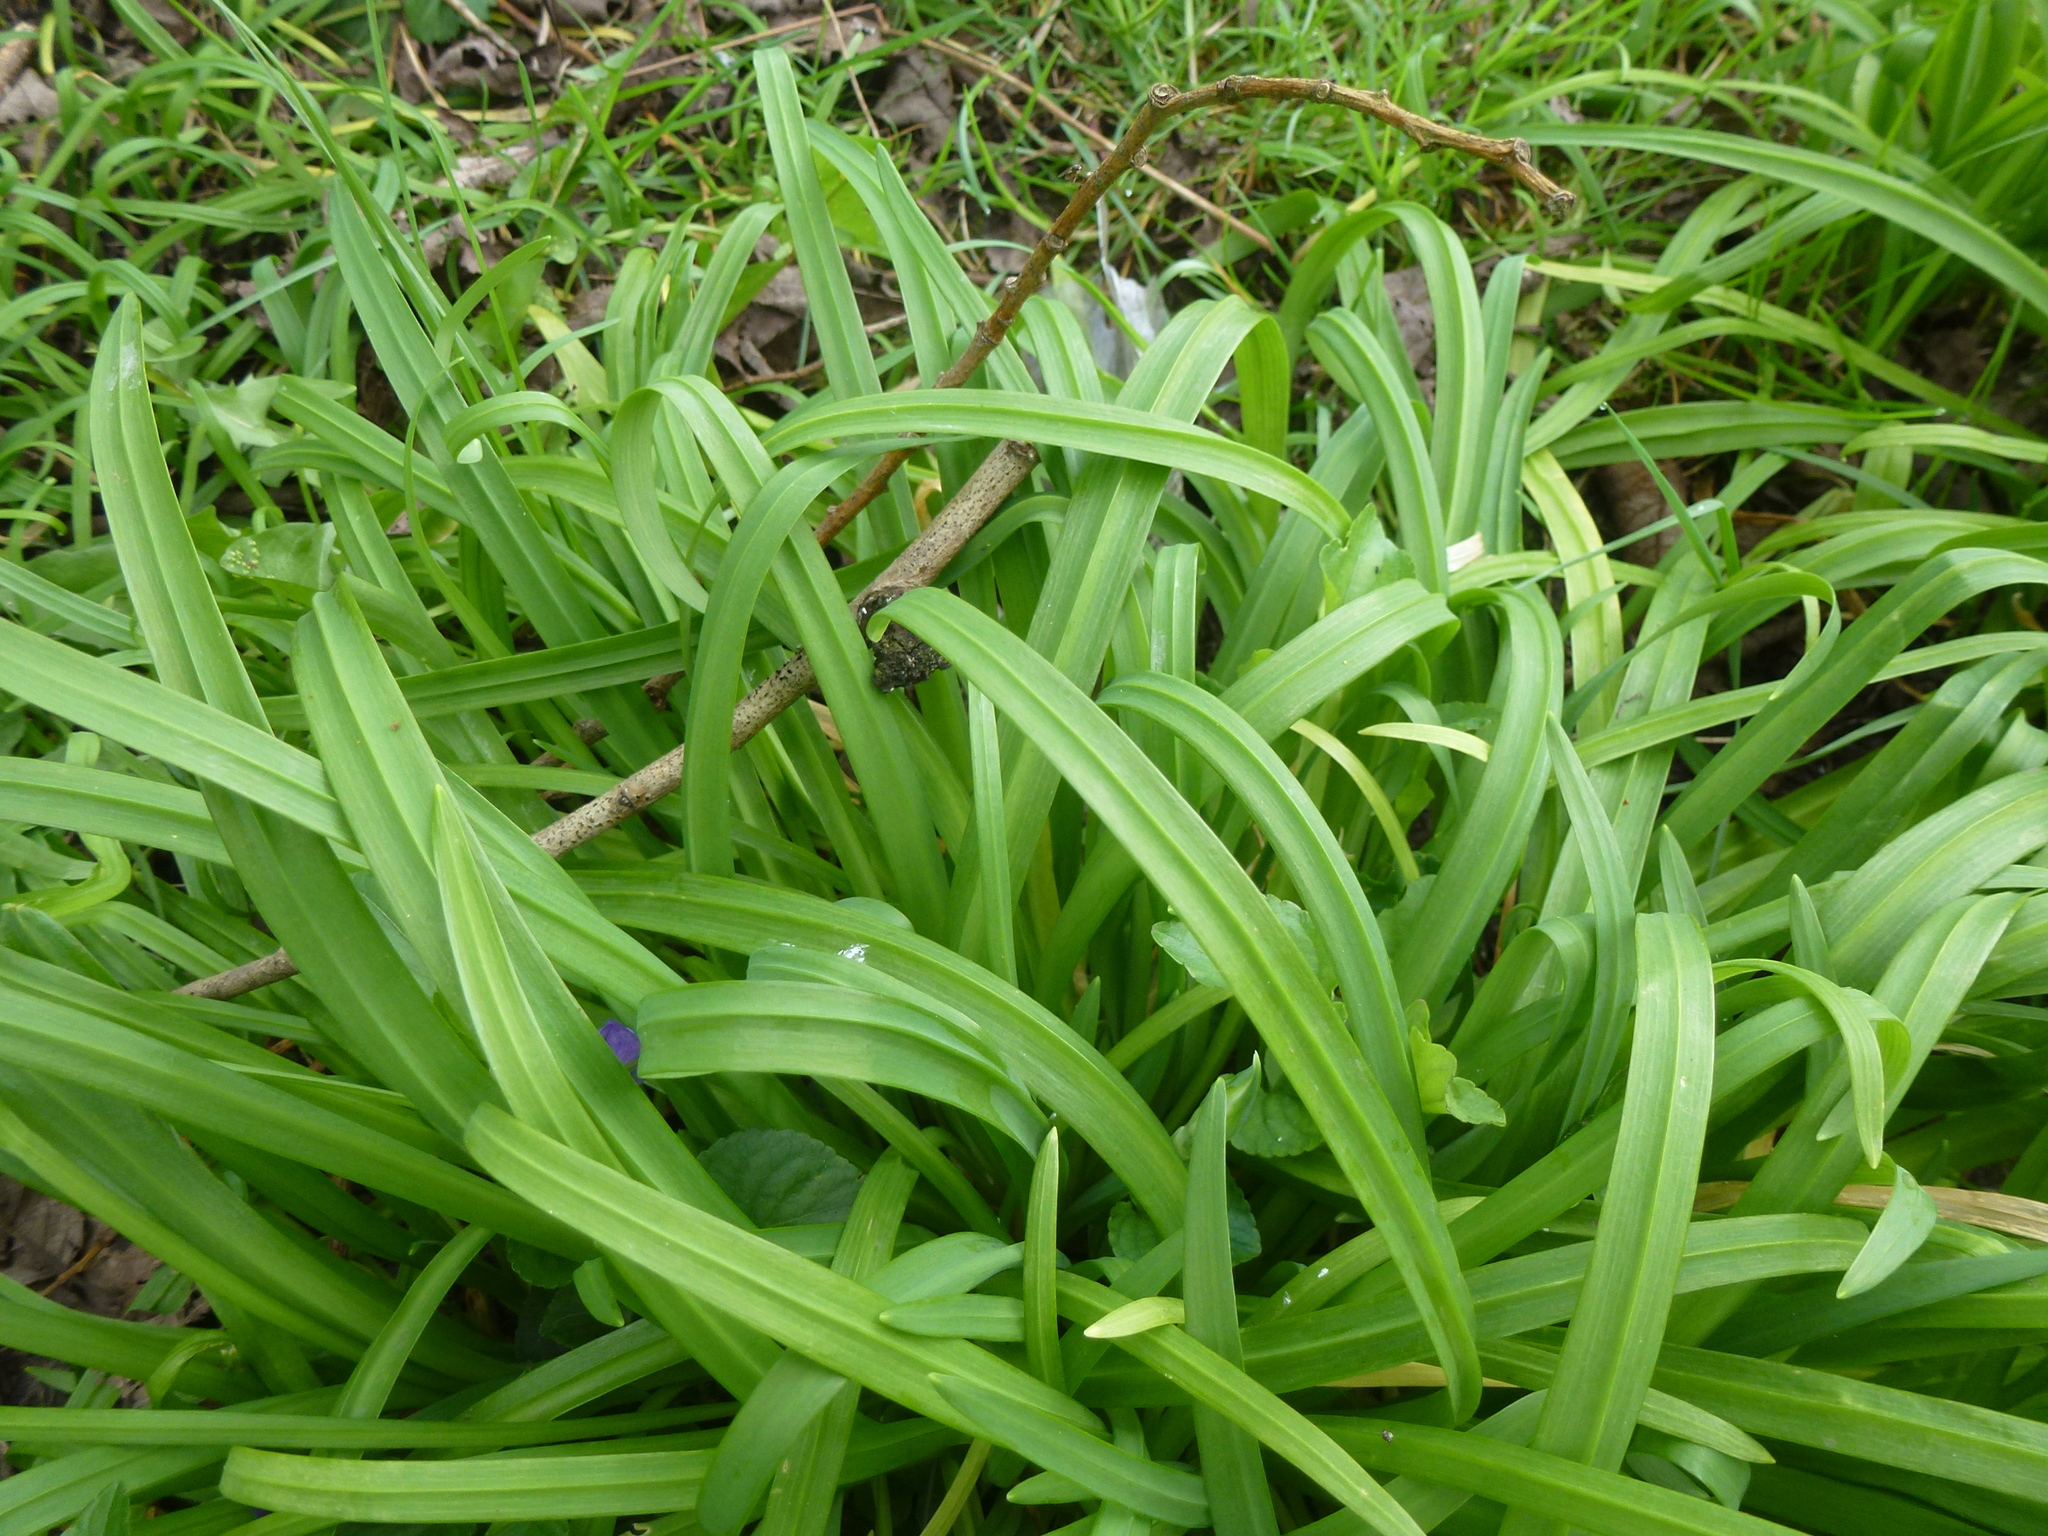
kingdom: Plantae
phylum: Tracheophyta
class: Liliopsida
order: Asparagales
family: Amaryllidaceae
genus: Allium
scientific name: Allium triquetrum
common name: Three-cornered garlic
